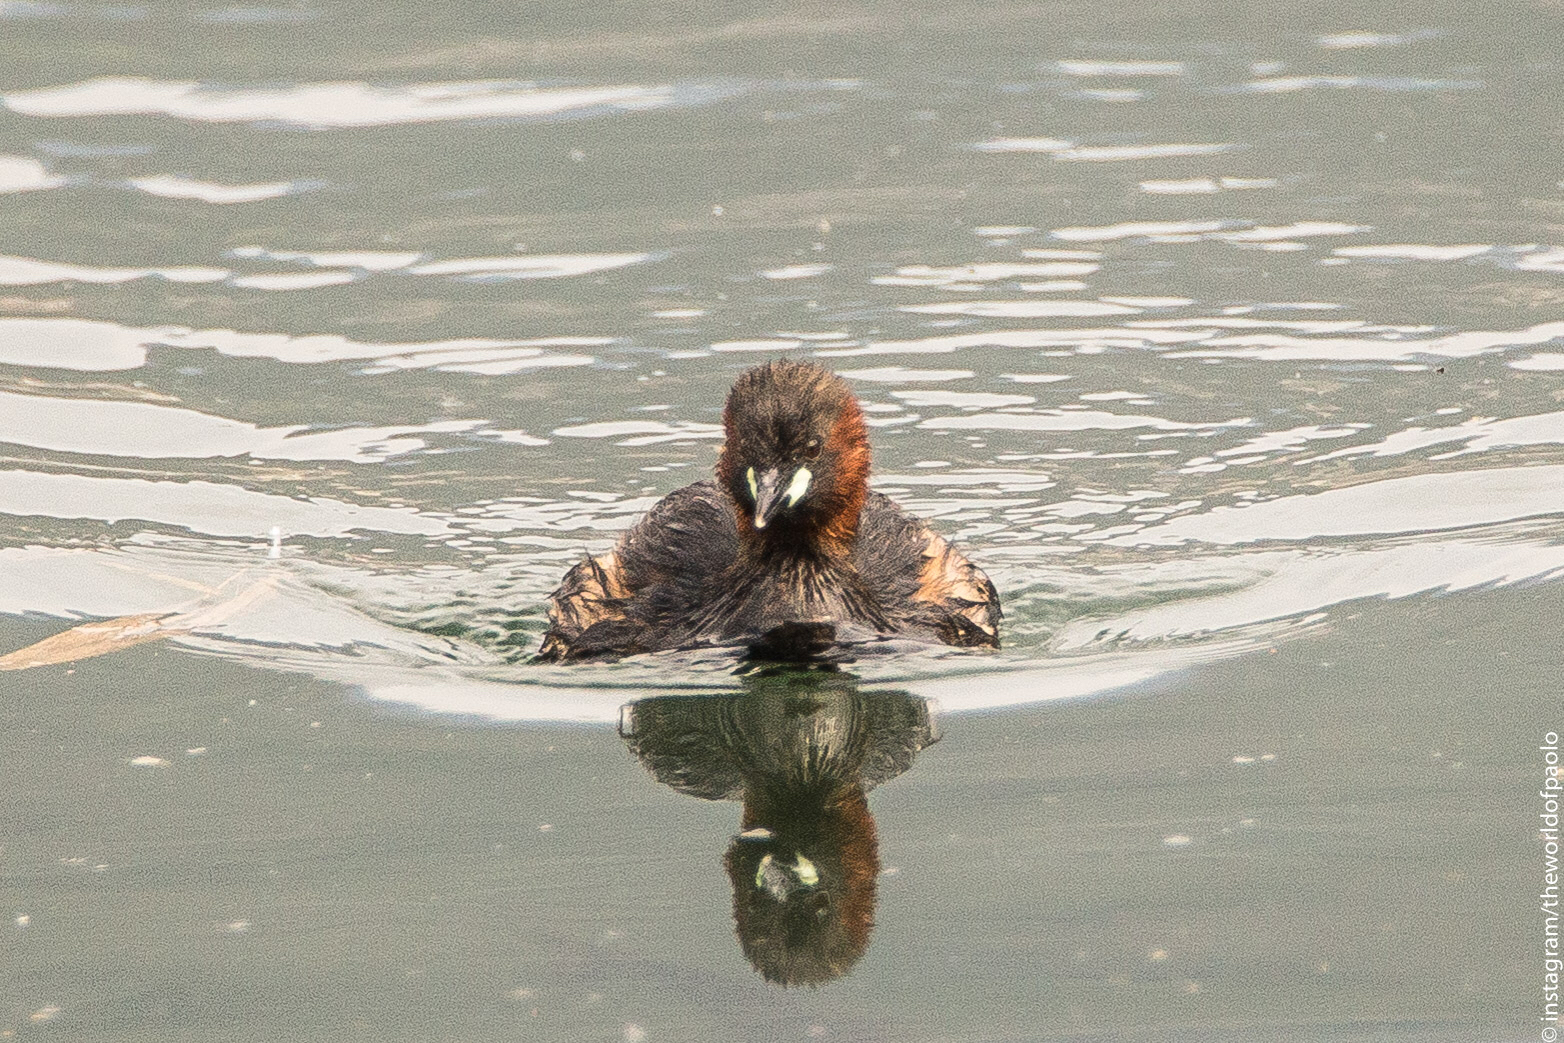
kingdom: Animalia
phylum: Chordata
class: Aves
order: Podicipediformes
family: Podicipedidae
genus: Tachybaptus
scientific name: Tachybaptus ruficollis
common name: Little grebe
